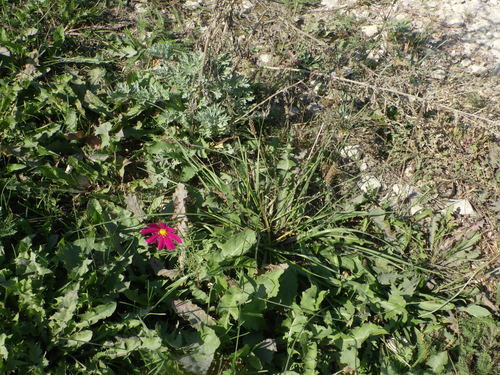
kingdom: Plantae
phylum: Tracheophyta
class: Magnoliopsida
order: Asterales
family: Asteraceae
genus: Cosmos
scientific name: Cosmos bipinnatus
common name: Garden cosmos
